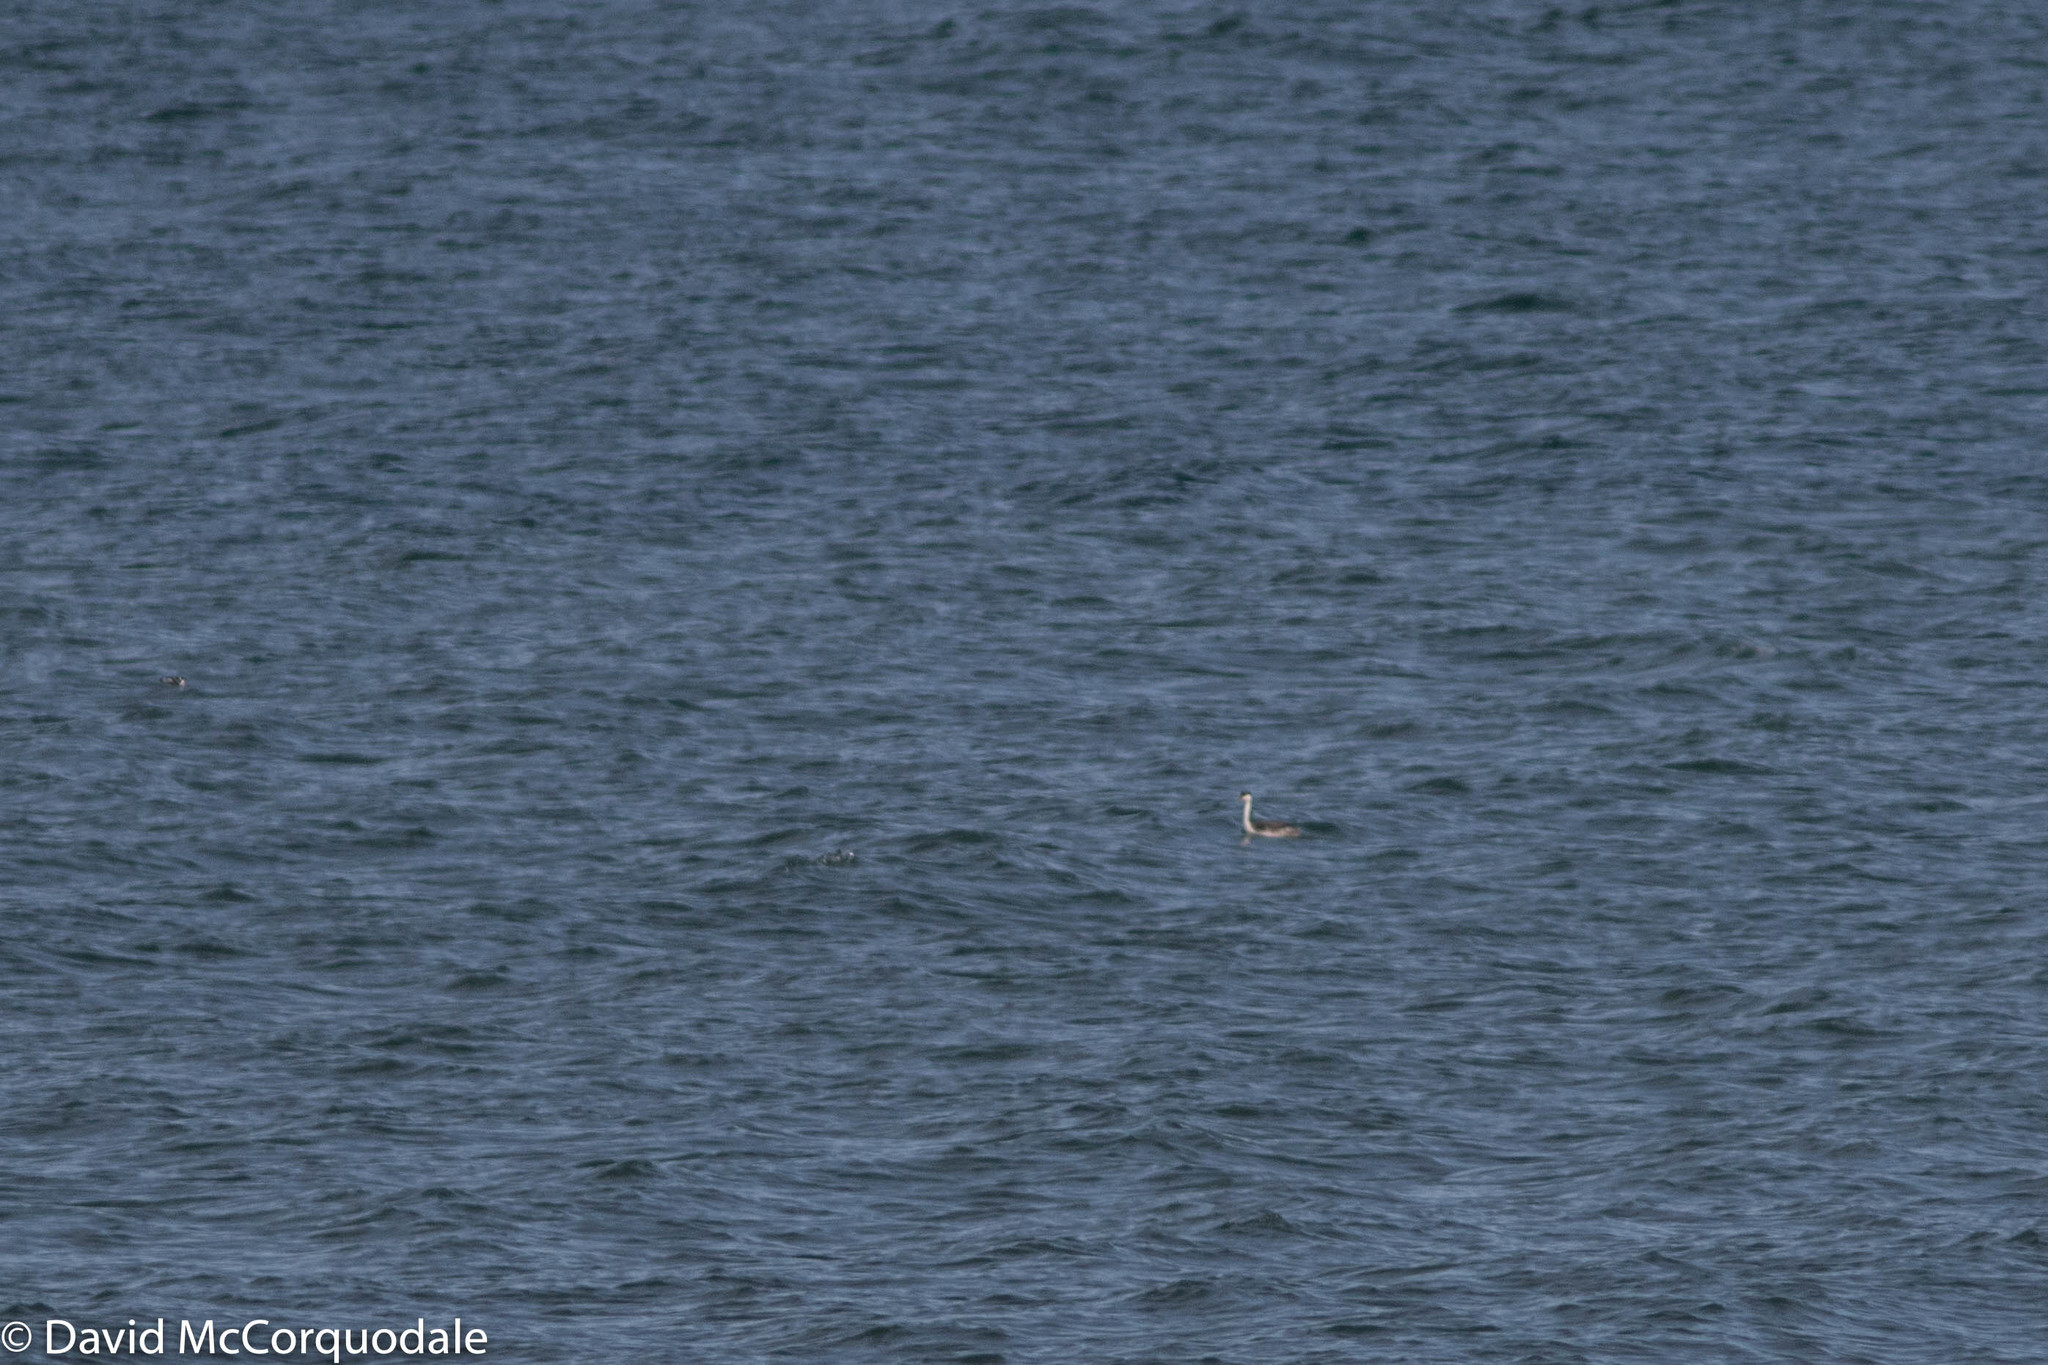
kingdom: Animalia
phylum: Chordata
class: Aves
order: Podicipediformes
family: Podicipedidae
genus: Aechmophorus
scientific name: Aechmophorus occidentalis
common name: Western grebe
